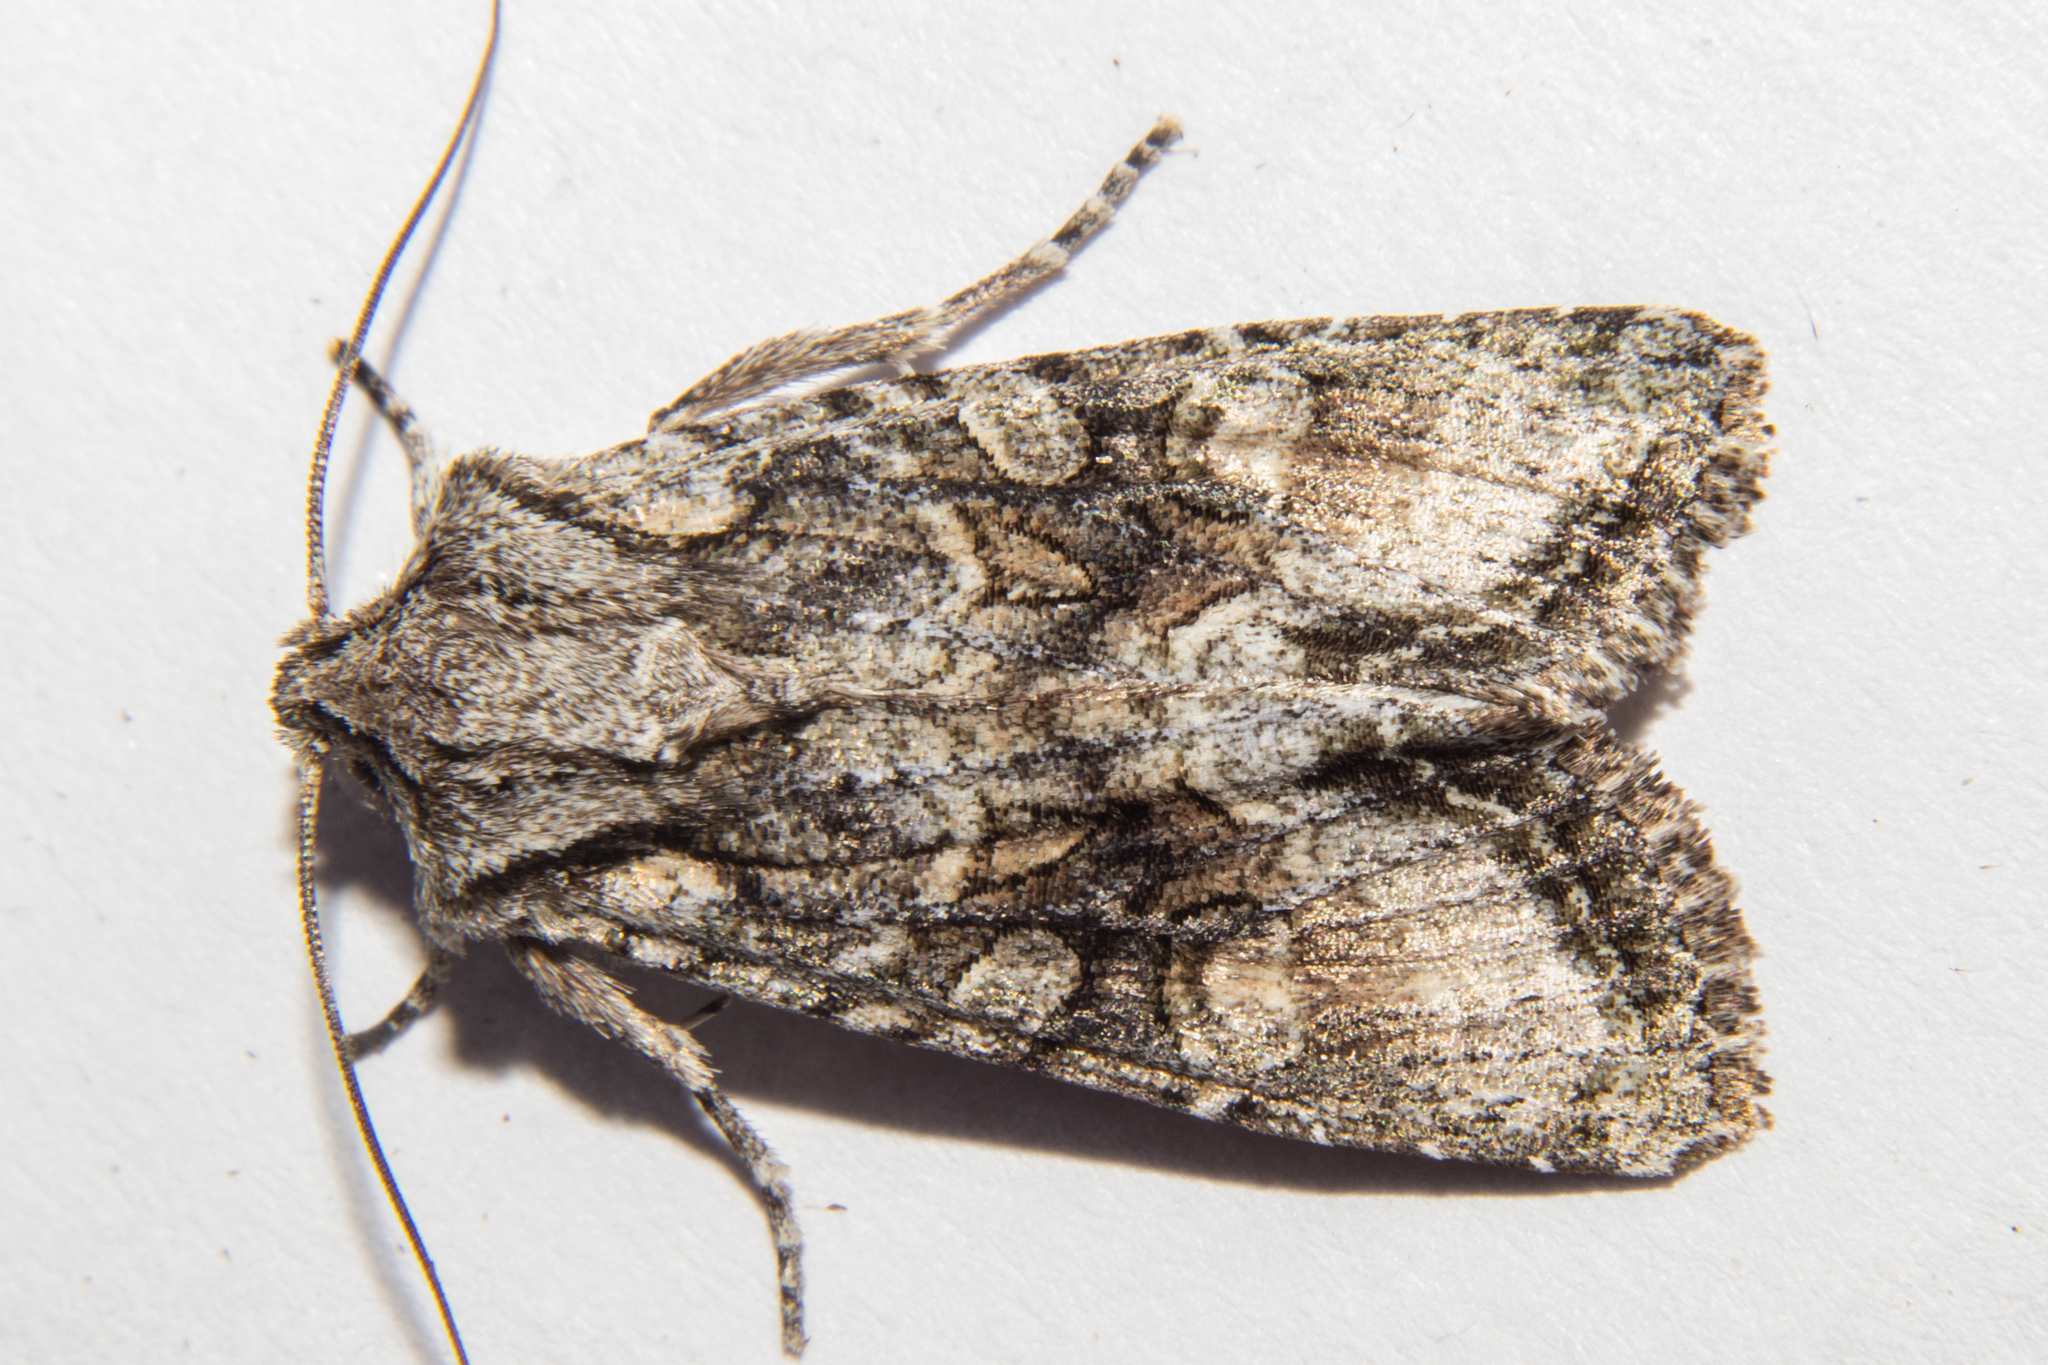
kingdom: Animalia
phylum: Arthropoda
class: Insecta
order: Lepidoptera
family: Noctuidae
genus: Ichneutica
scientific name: Ichneutica mutans
